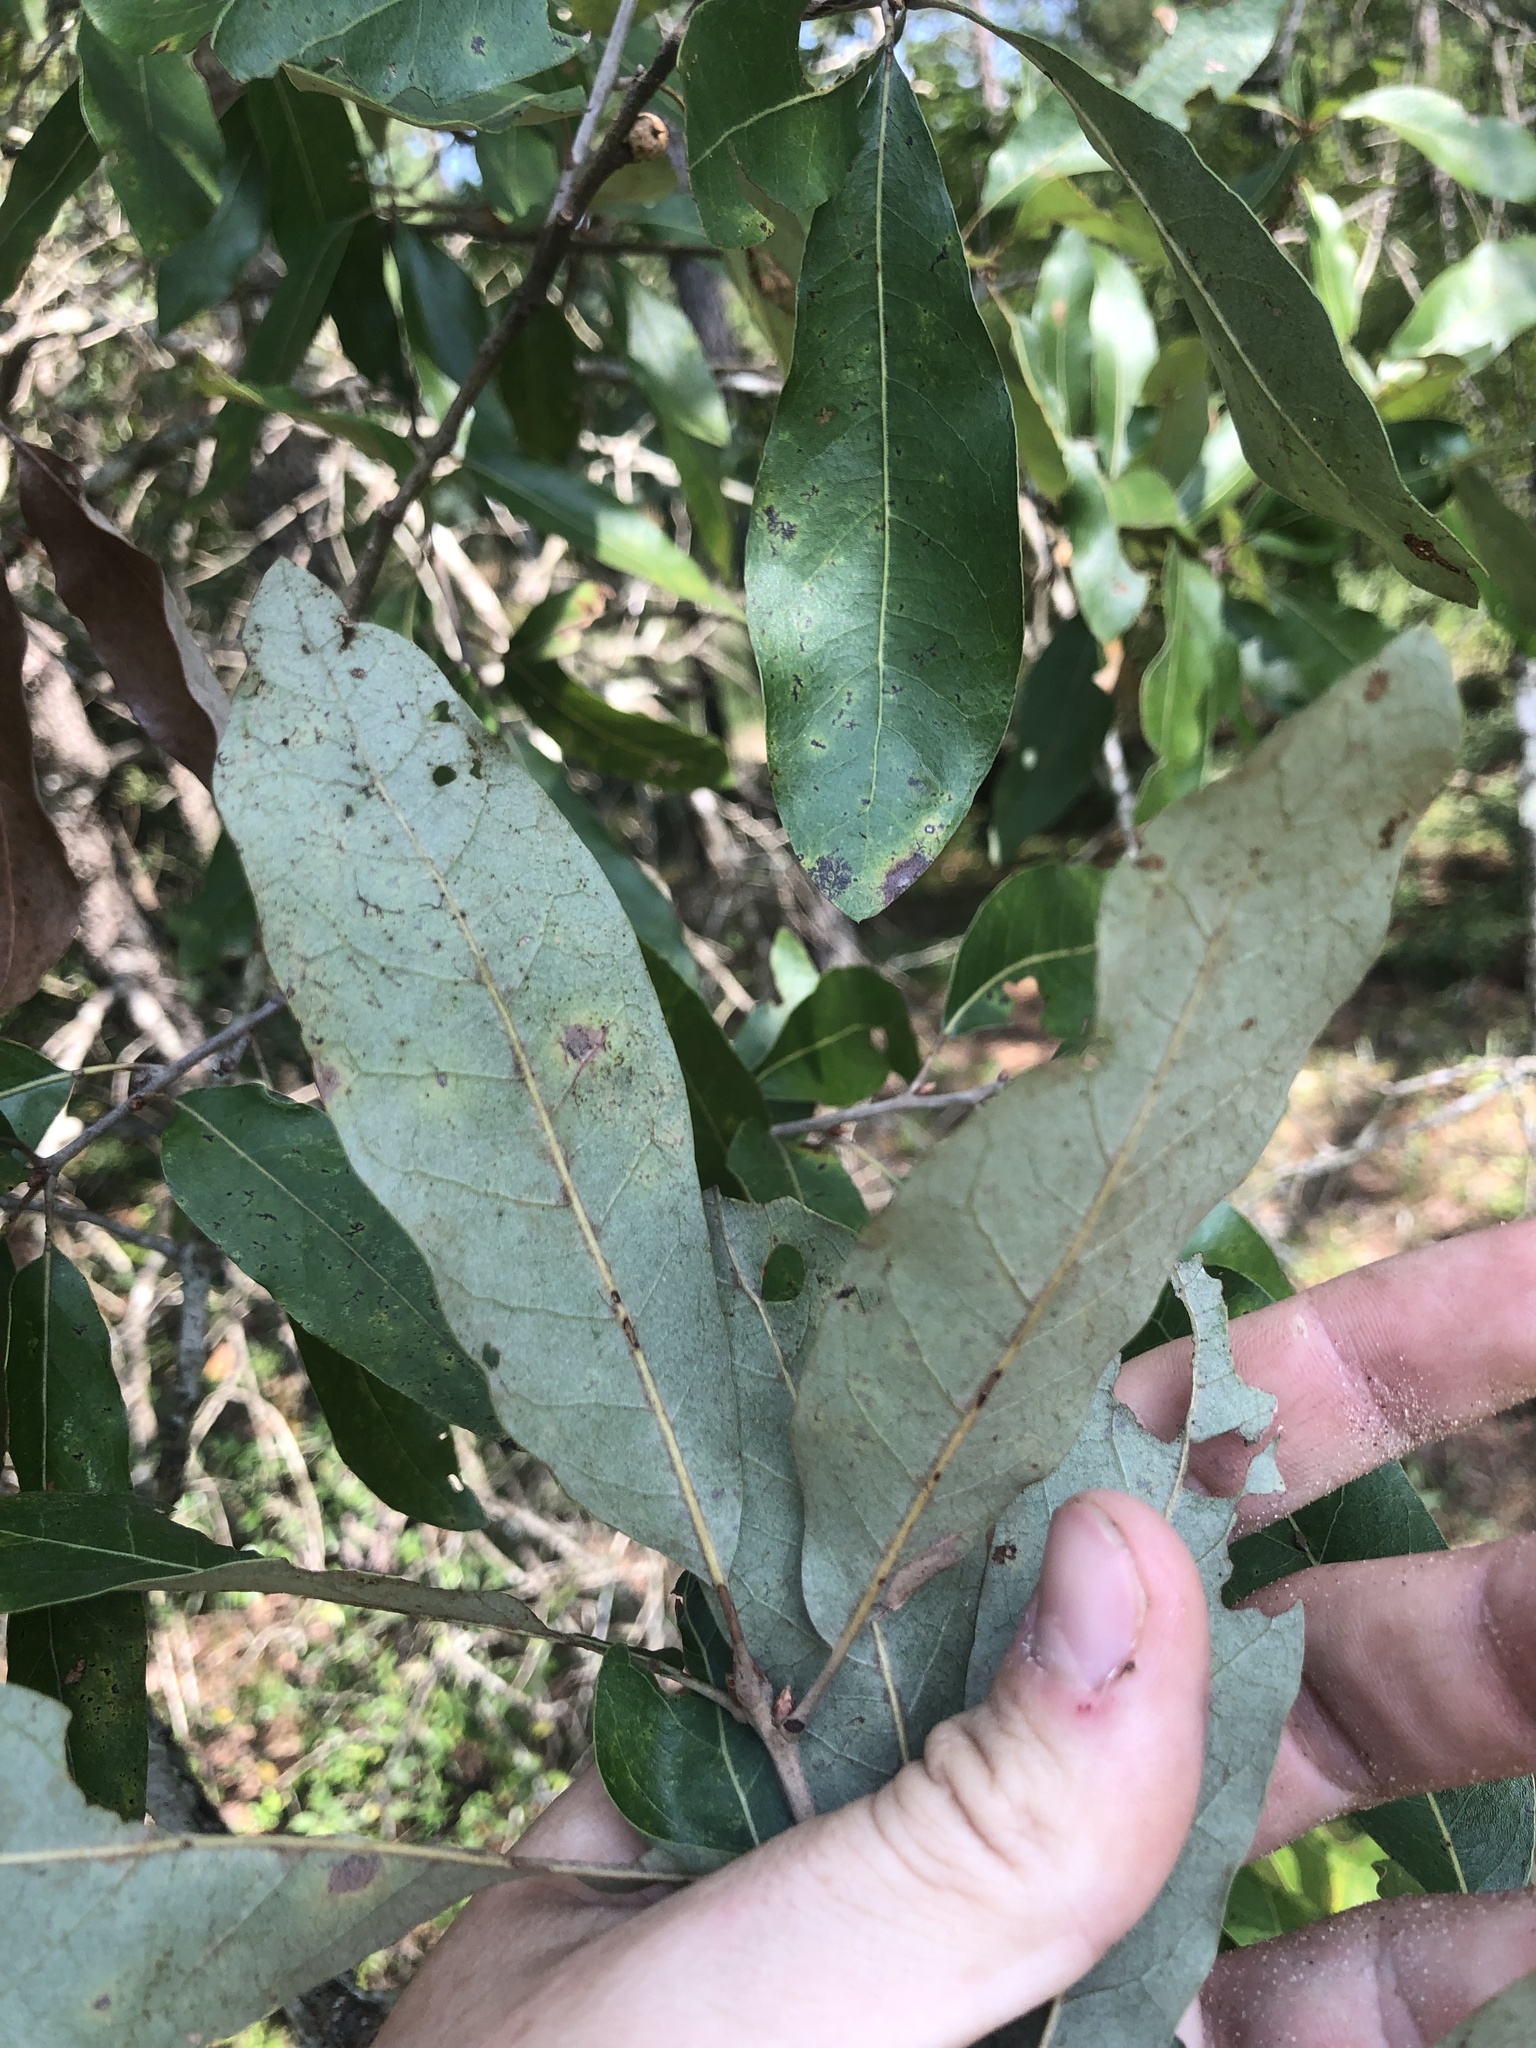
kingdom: Plantae
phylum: Tracheophyta
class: Magnoliopsida
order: Fagales
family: Fagaceae
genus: Quercus
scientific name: Quercus incana
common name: Bluejack oak
